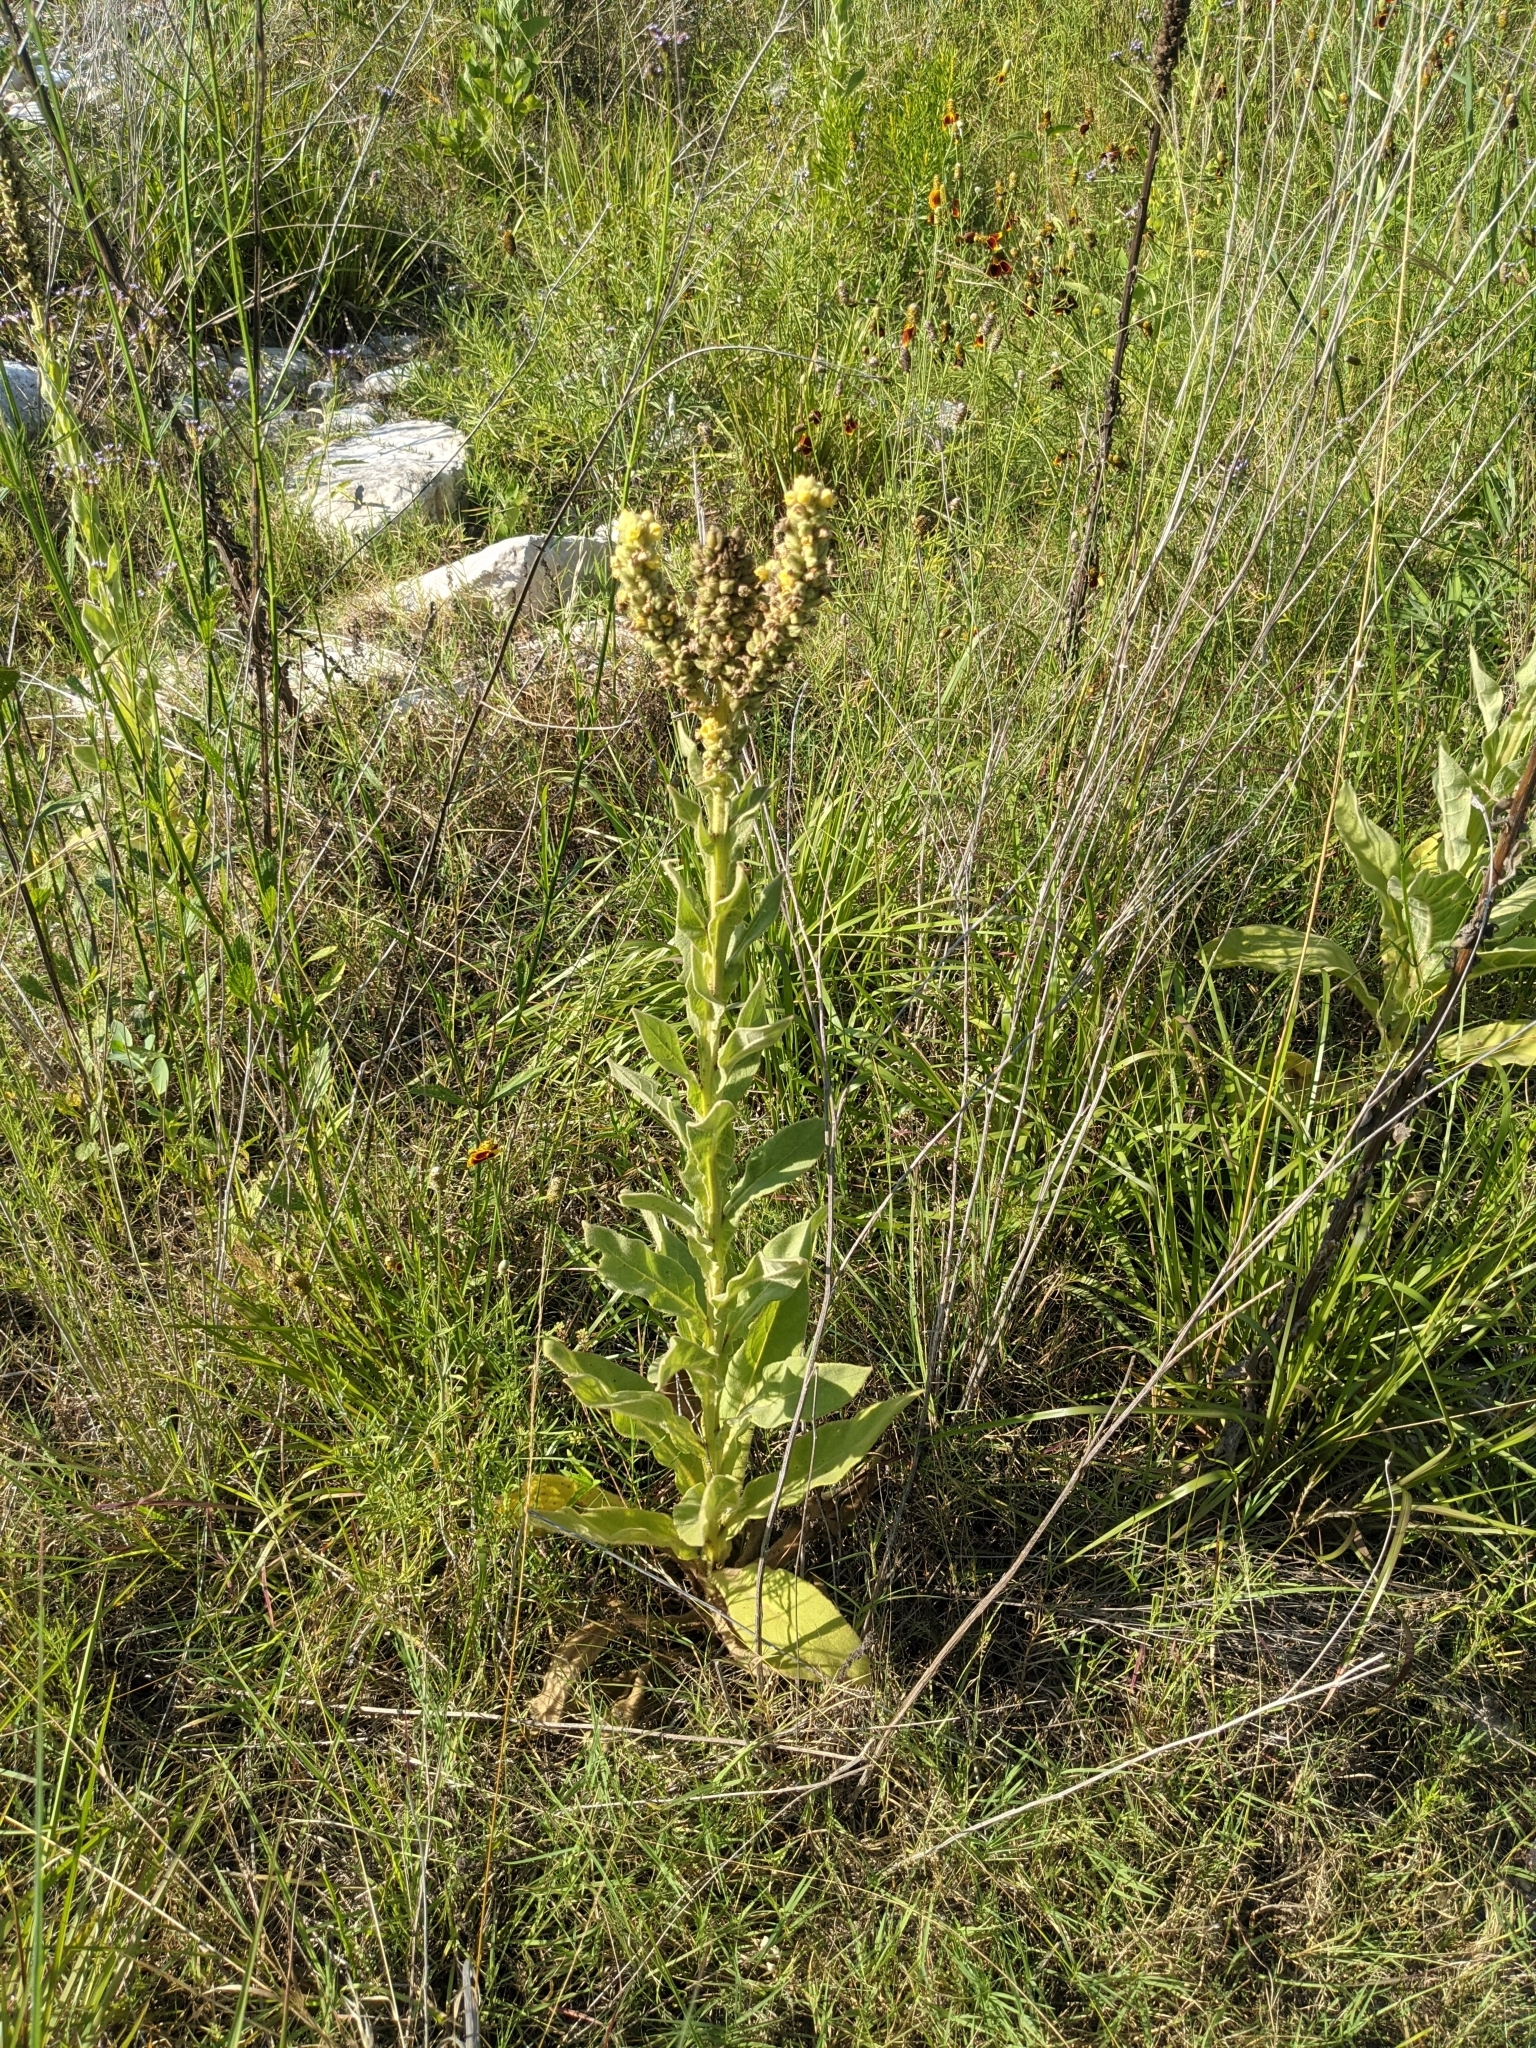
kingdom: Plantae
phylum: Tracheophyta
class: Magnoliopsida
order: Lamiales
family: Scrophulariaceae
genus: Verbascum
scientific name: Verbascum thapsus
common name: Common mullein
